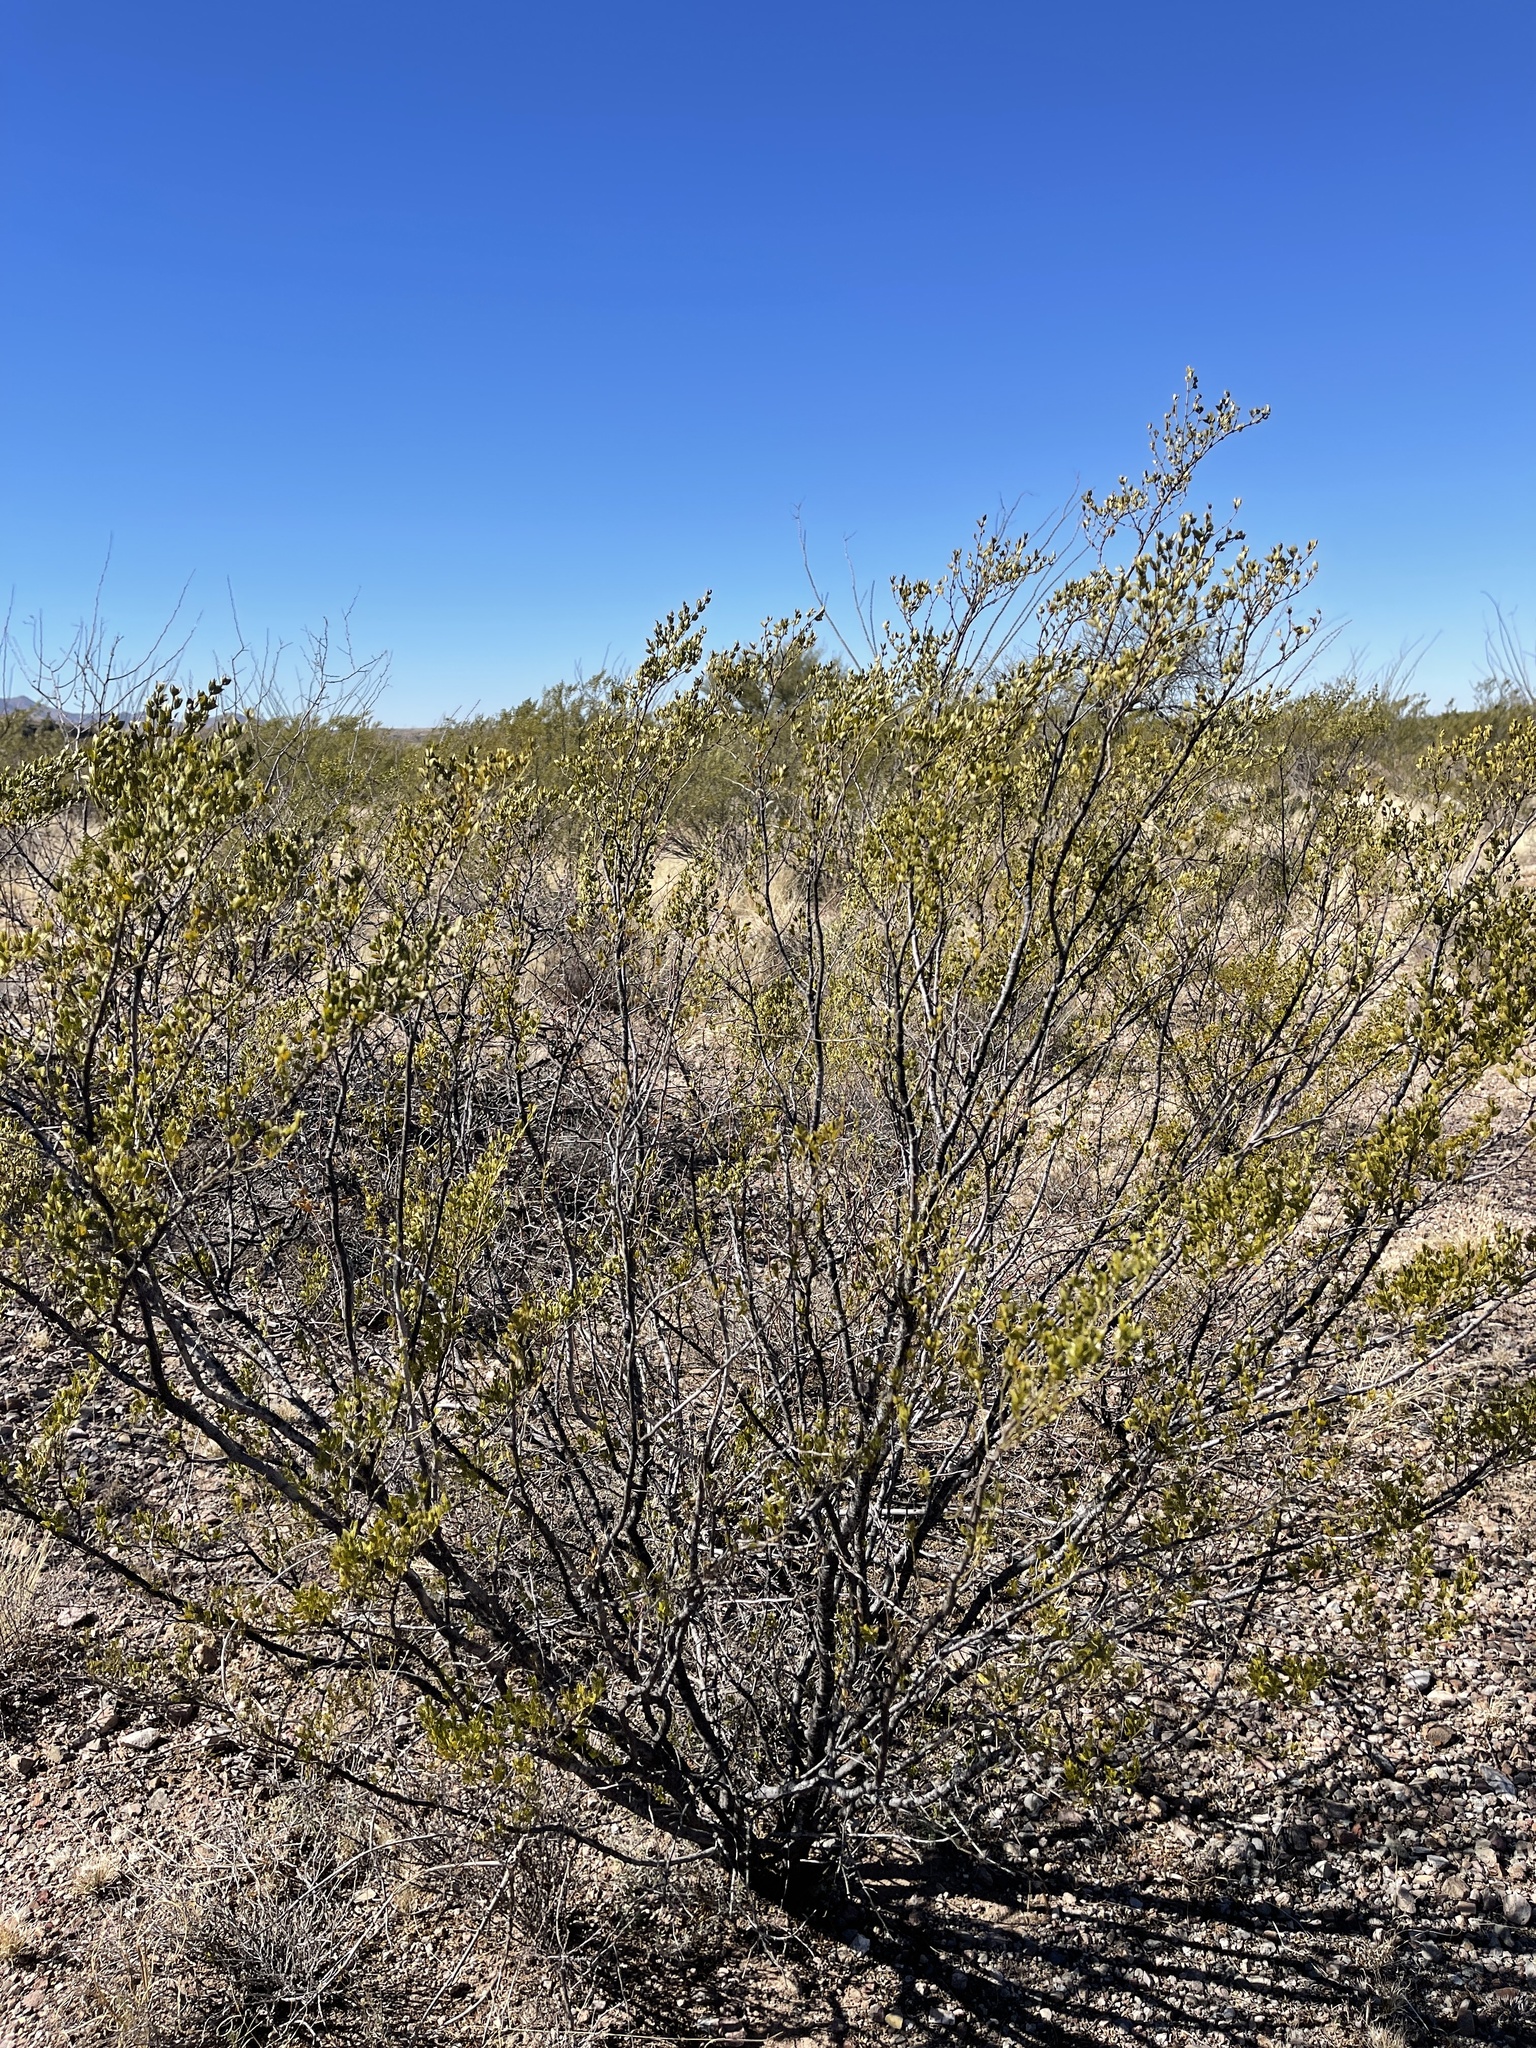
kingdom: Plantae
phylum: Tracheophyta
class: Magnoliopsida
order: Zygophyllales
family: Zygophyllaceae
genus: Larrea
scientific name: Larrea tridentata
